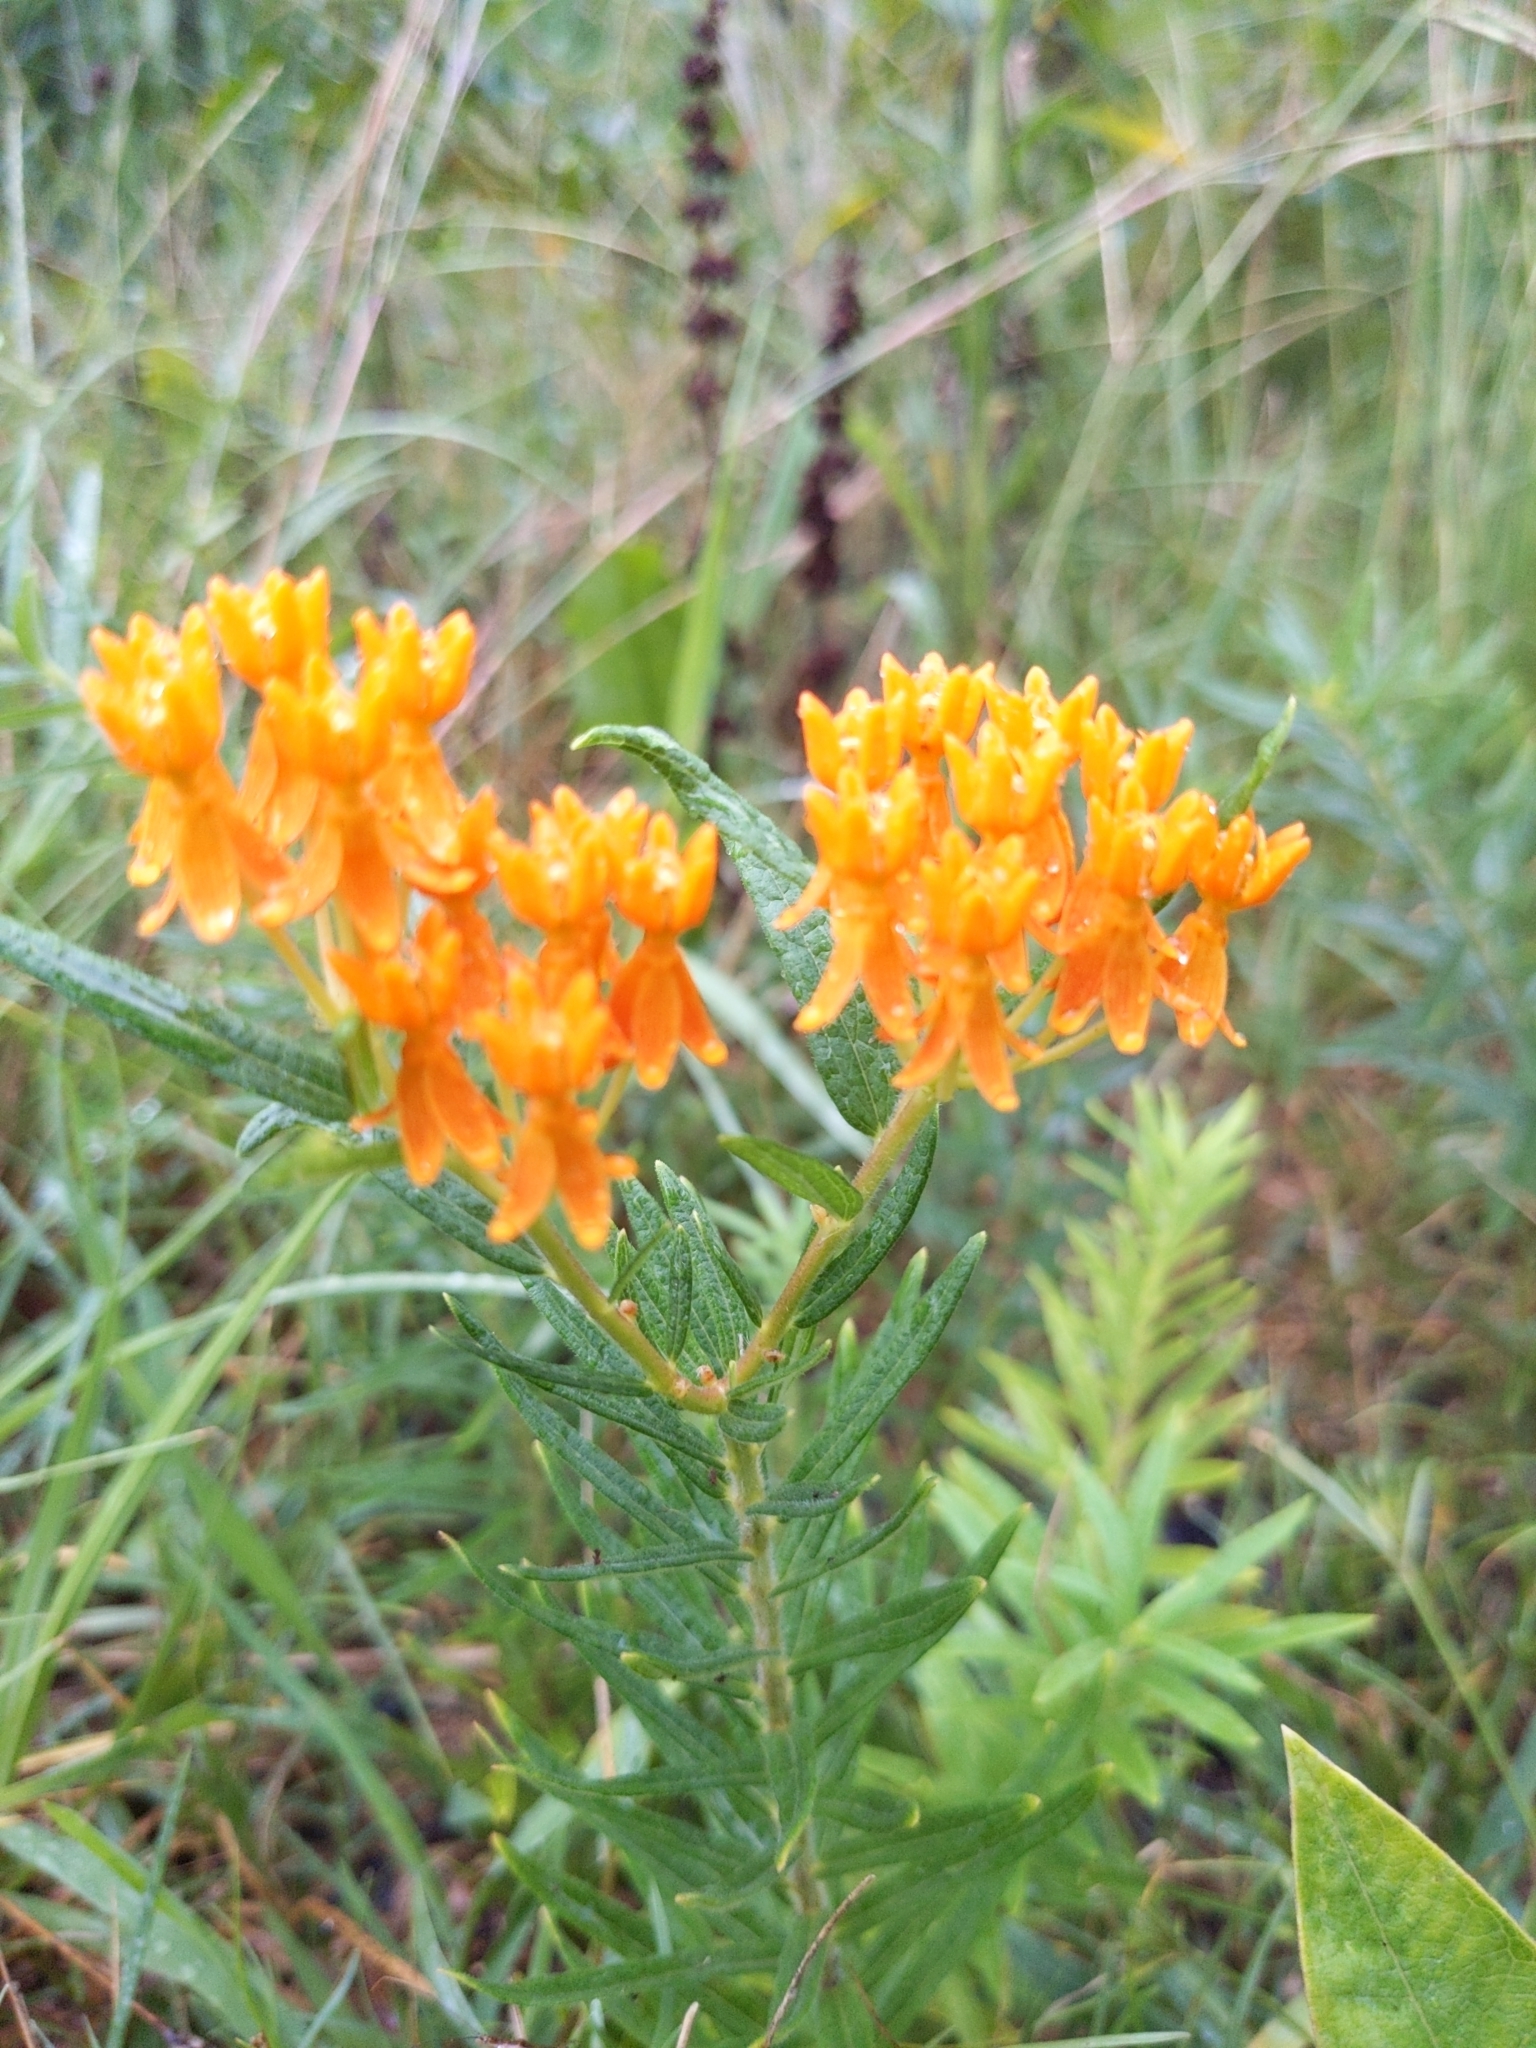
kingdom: Plantae
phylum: Tracheophyta
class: Magnoliopsida
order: Gentianales
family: Apocynaceae
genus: Asclepias
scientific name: Asclepias tuberosa
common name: Butterfly milkweed
